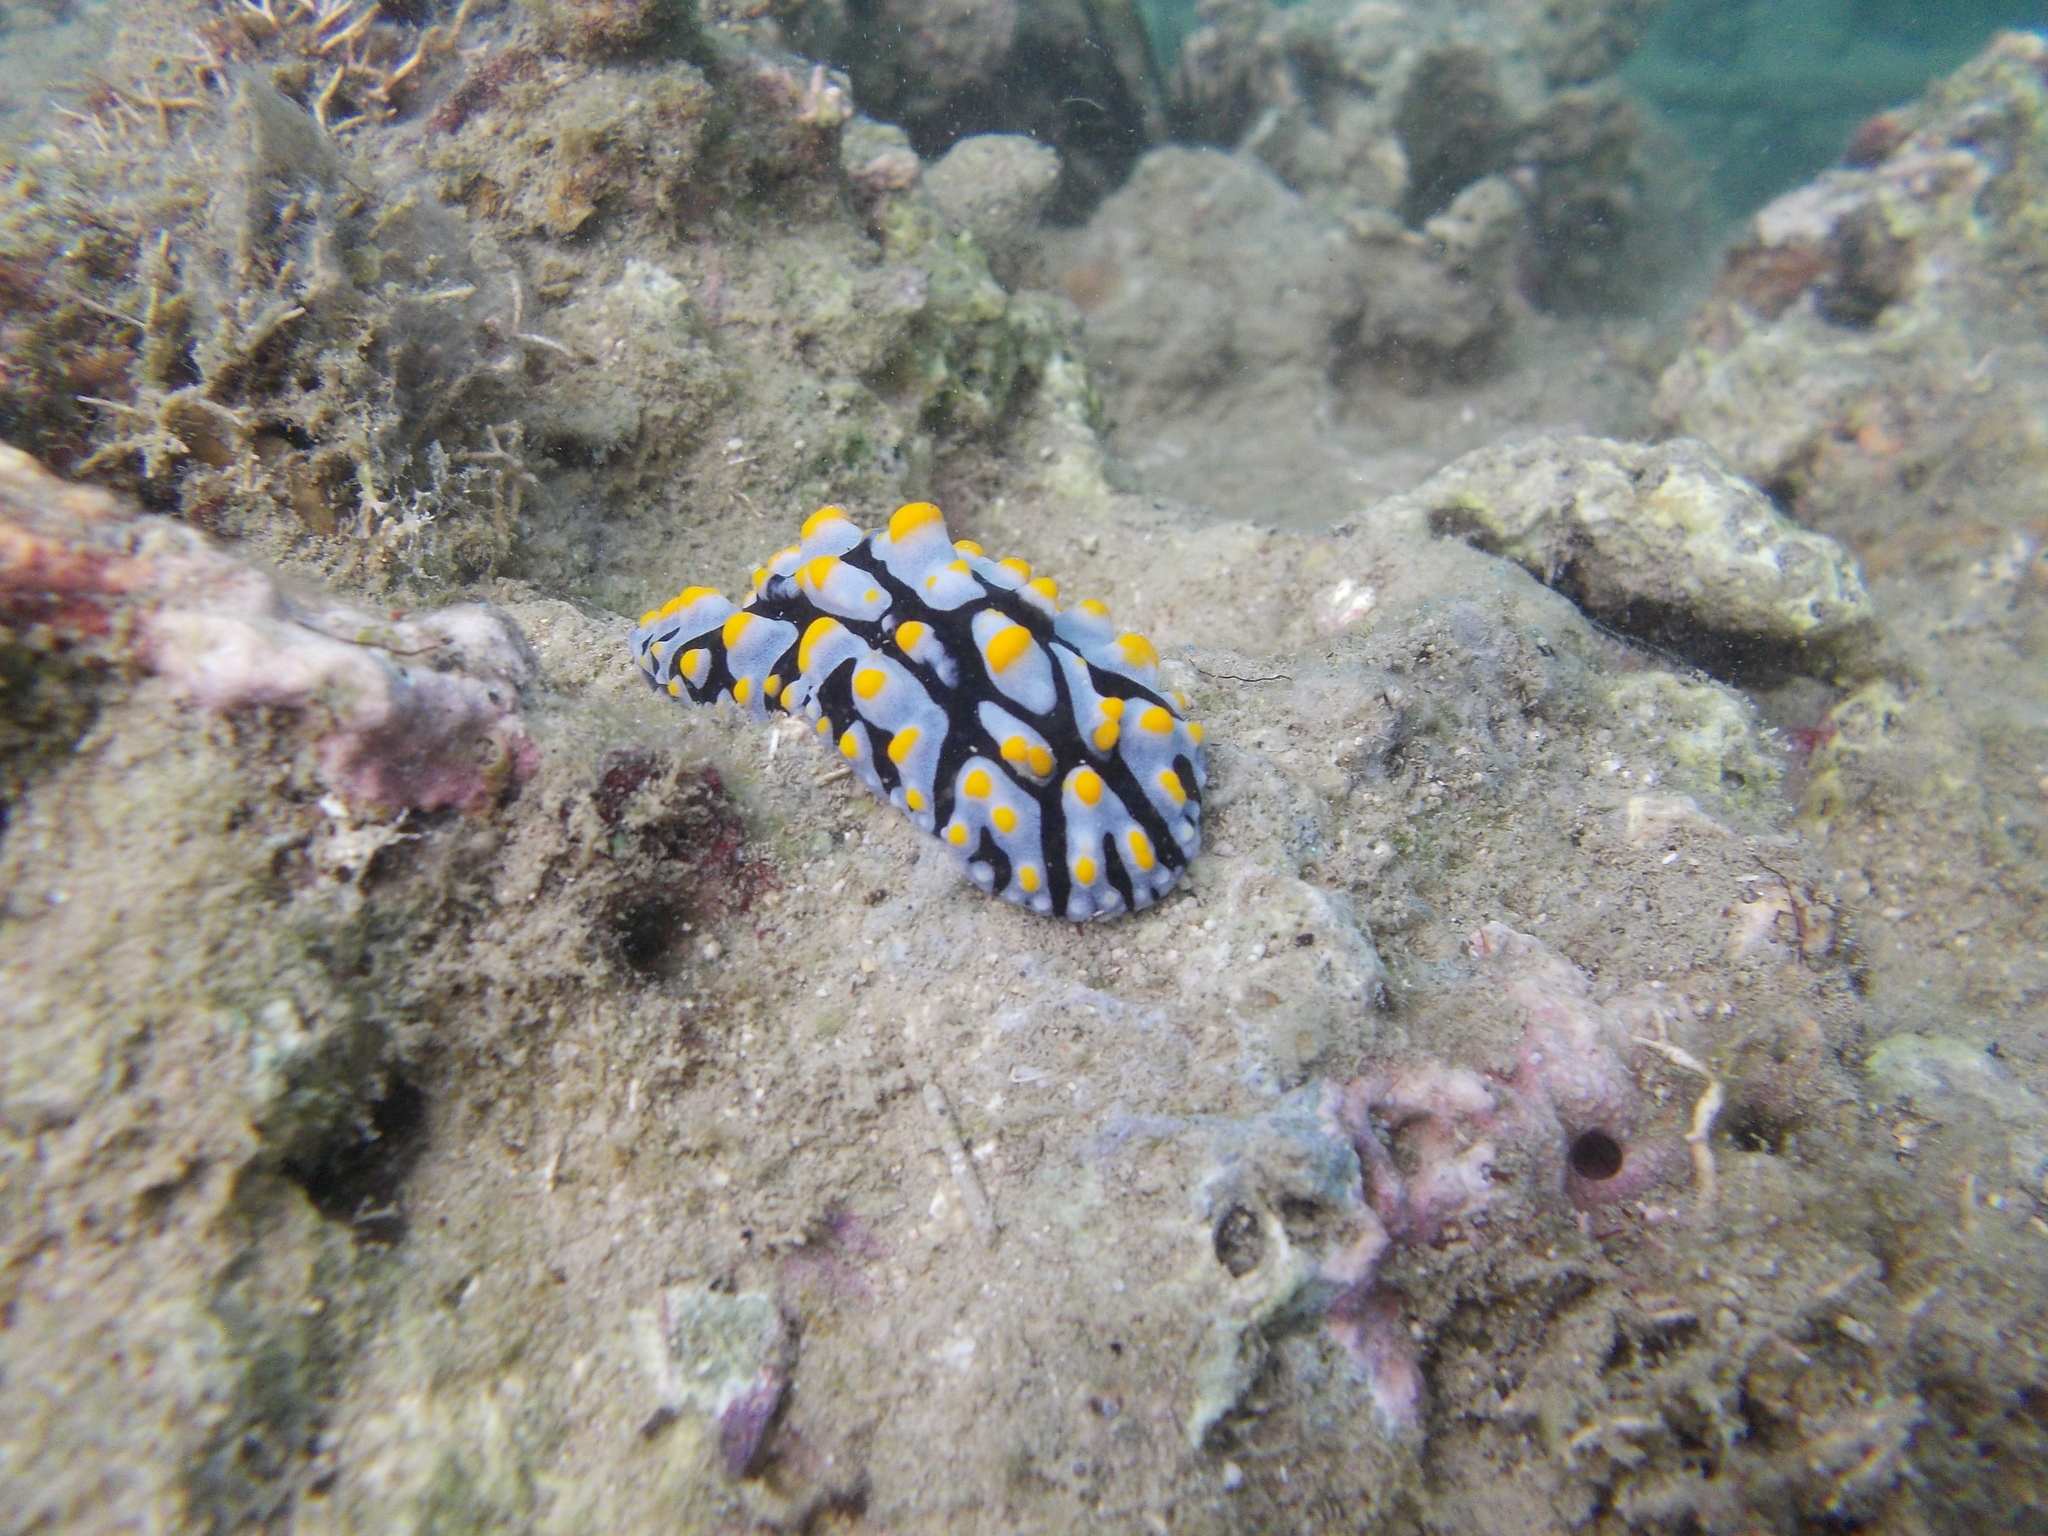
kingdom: Animalia
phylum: Mollusca
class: Gastropoda
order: Nudibranchia
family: Phyllidiidae
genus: Phyllidia
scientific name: Phyllidia varicosa
